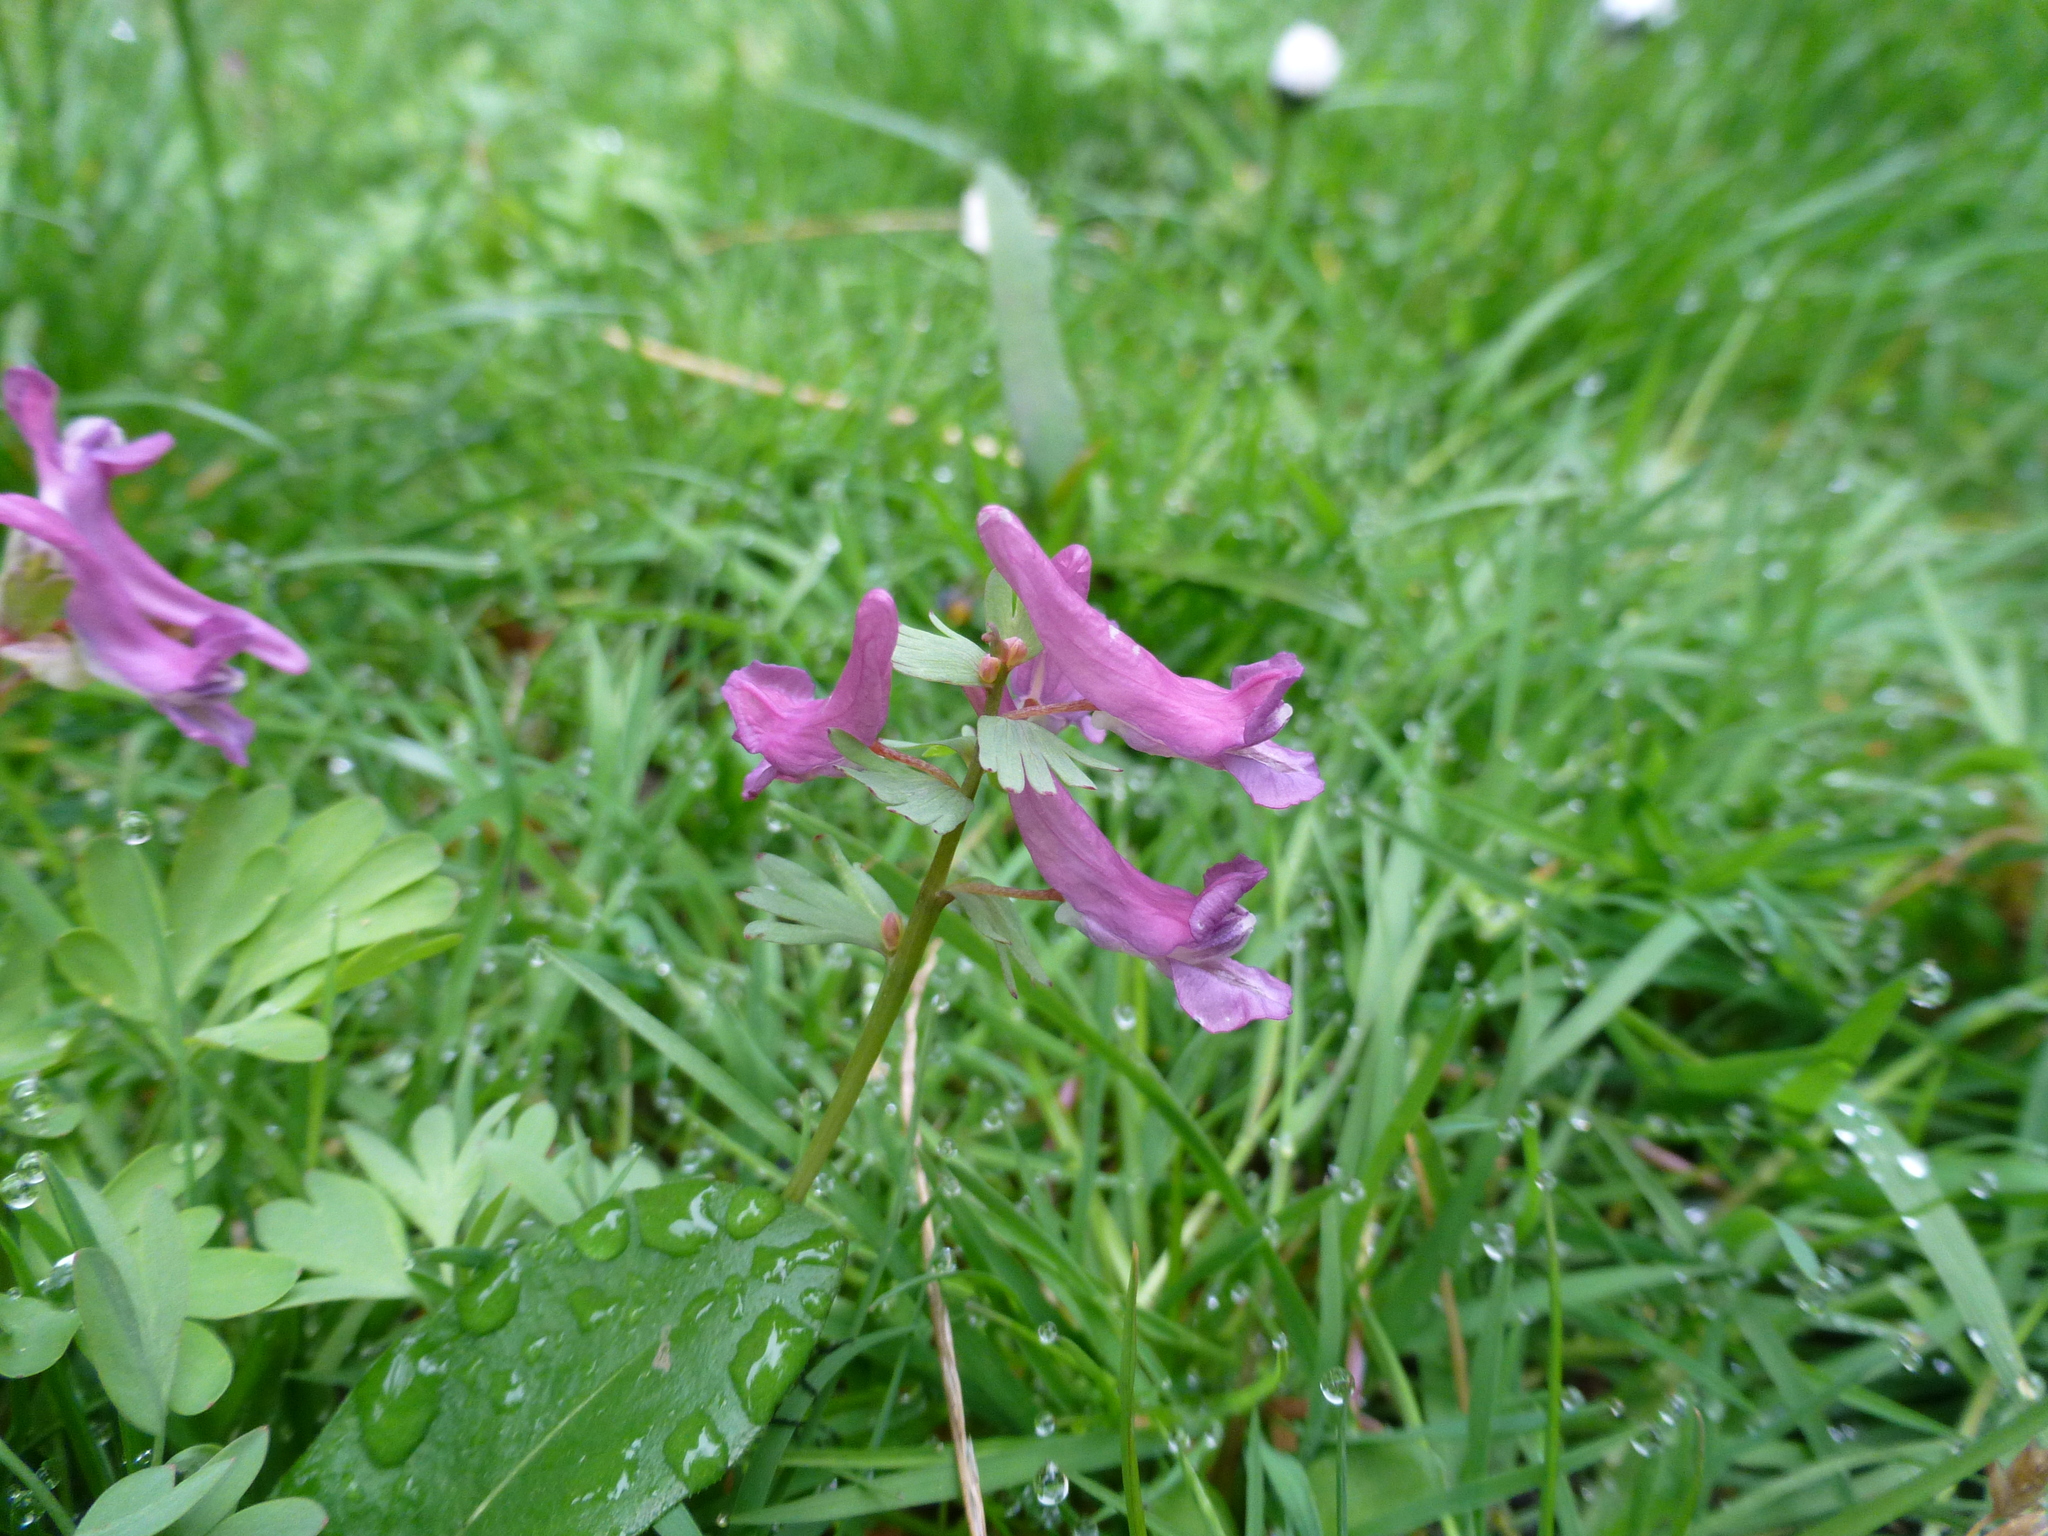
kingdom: Plantae
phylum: Tracheophyta
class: Magnoliopsida
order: Ranunculales
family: Papaveraceae
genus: Corydalis
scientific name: Corydalis solida
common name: Bird-in-a-bush
